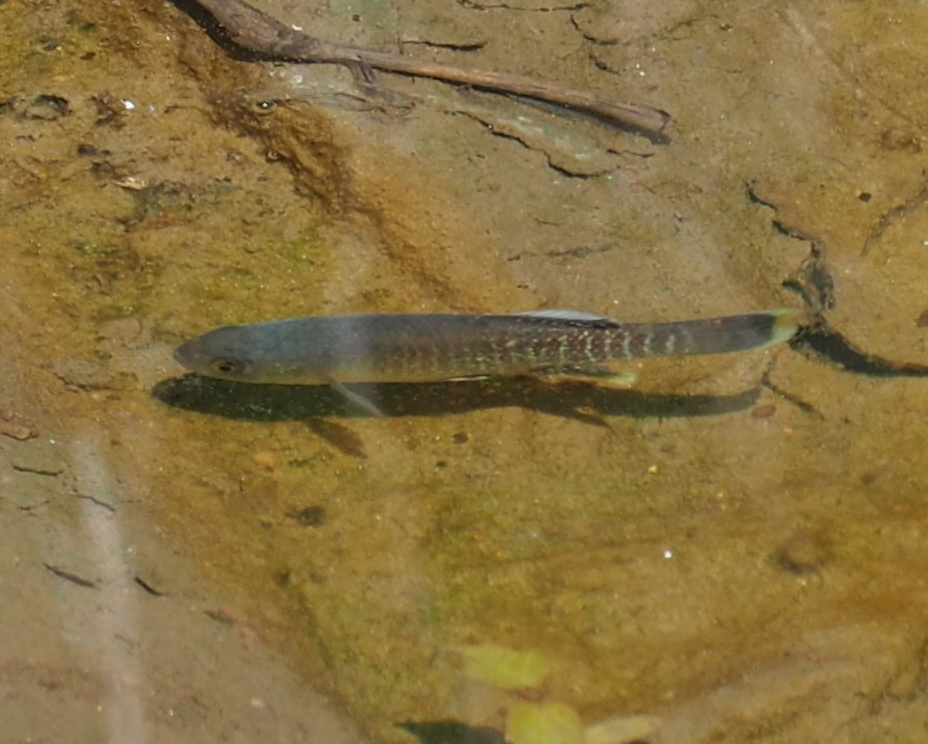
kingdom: Animalia
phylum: Chordata
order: Cyprinodontiformes
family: Fundulidae
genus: Fundulus
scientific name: Fundulus heteroclitus
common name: Mummichog
